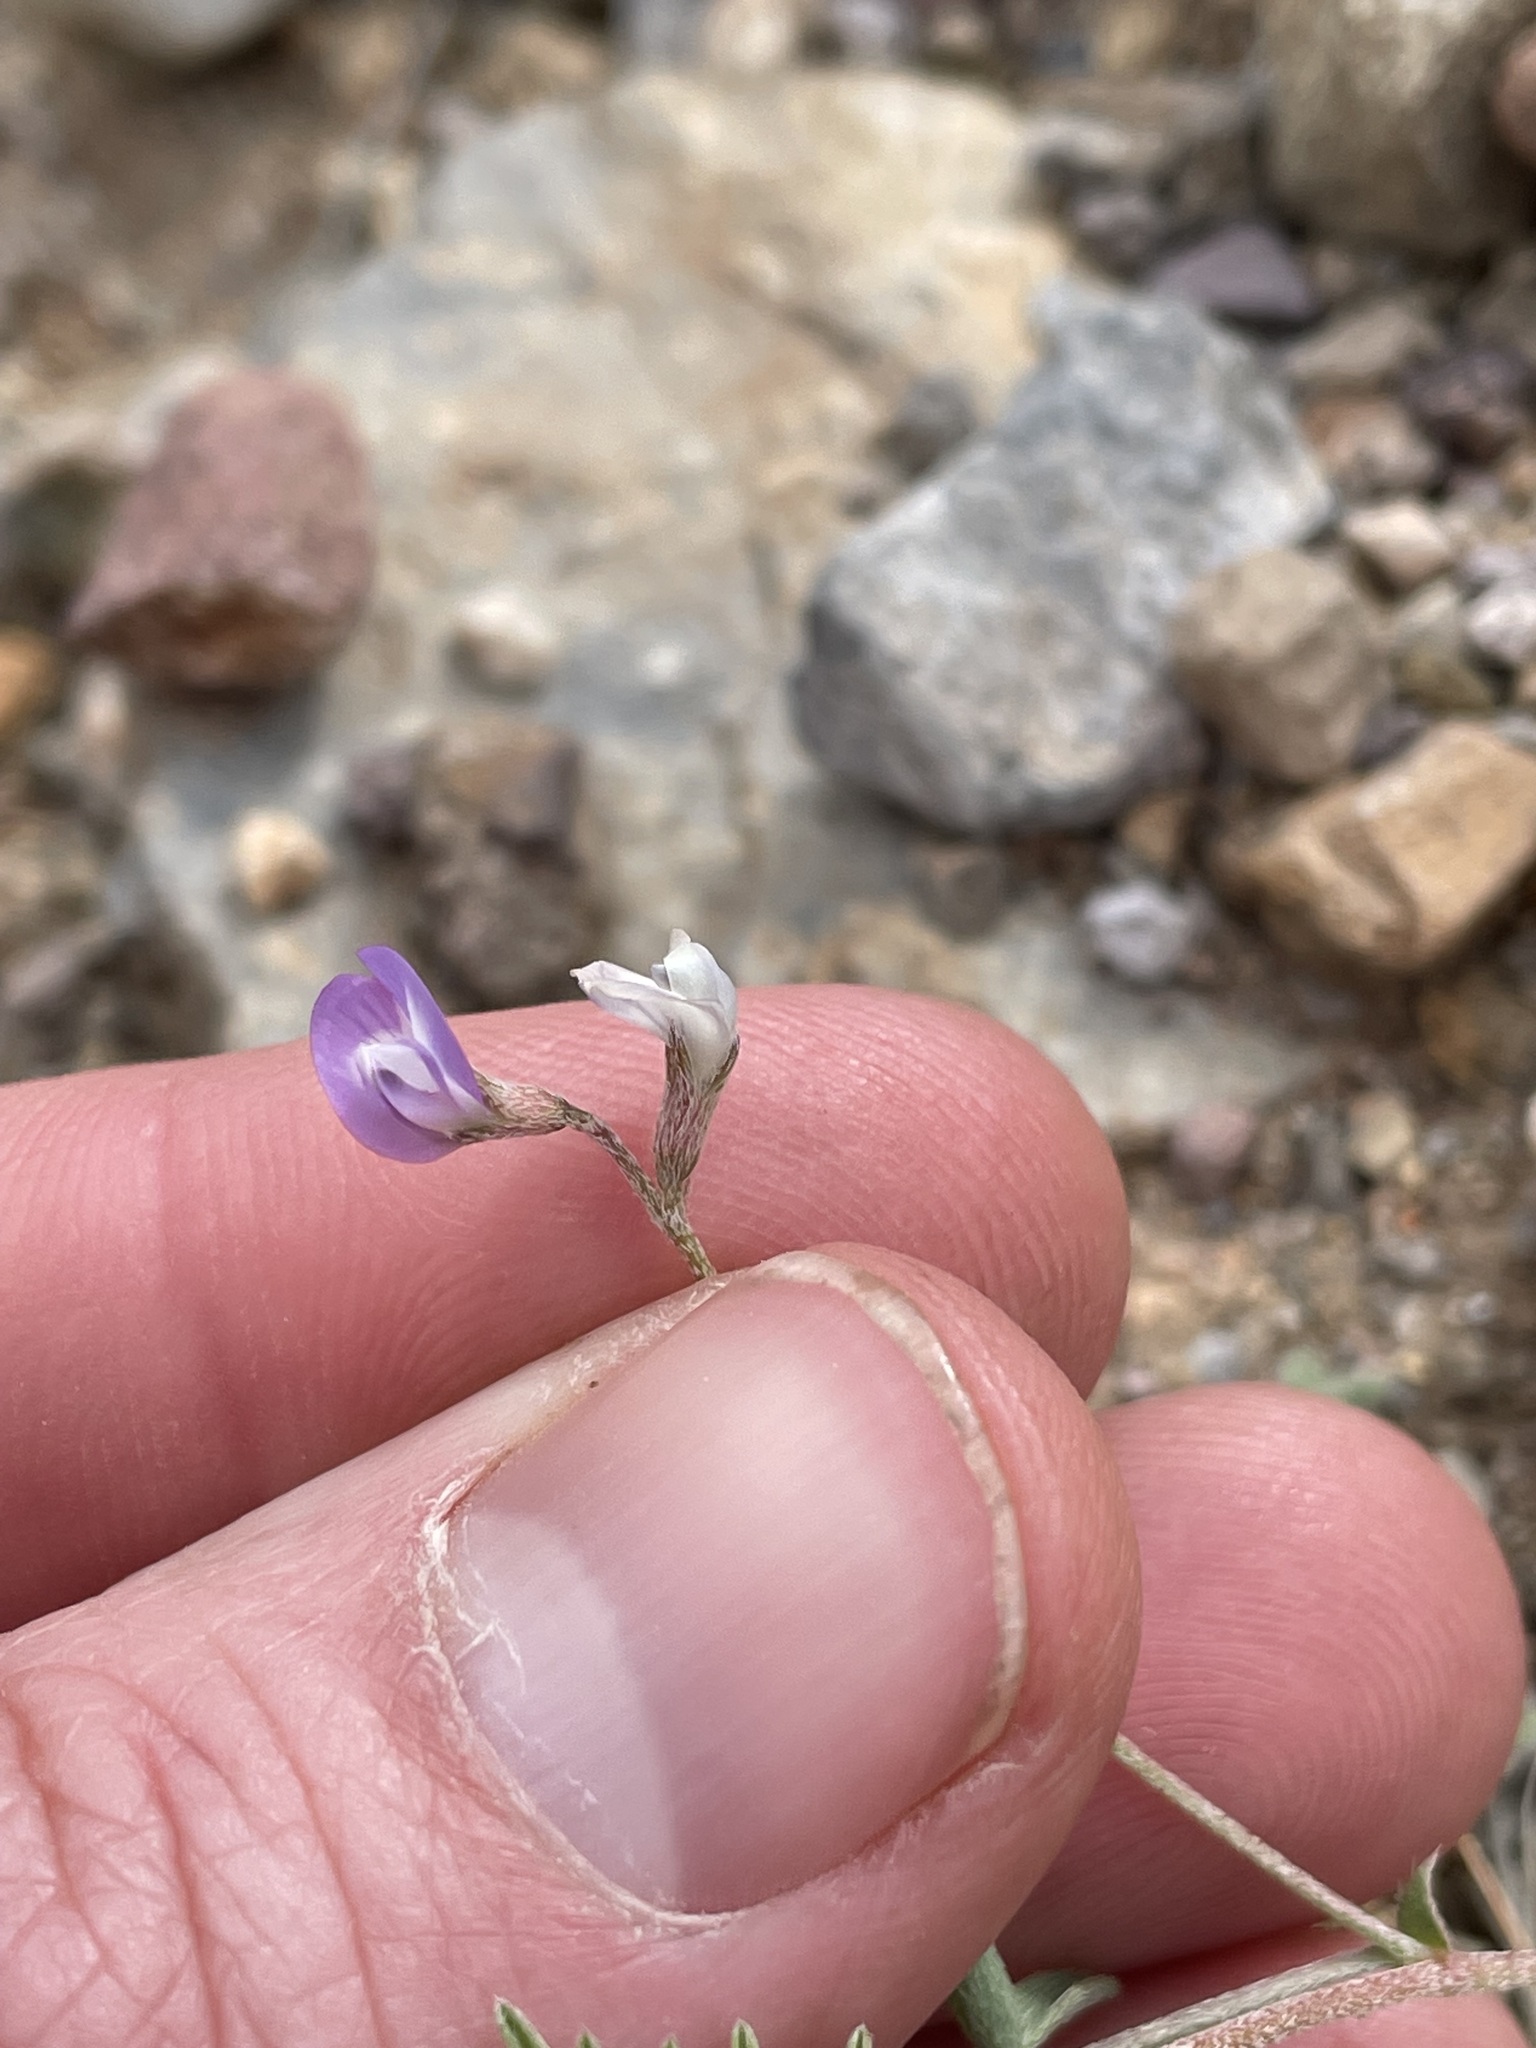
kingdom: Plantae
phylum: Tracheophyta
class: Magnoliopsida
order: Fabales
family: Fabaceae
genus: Astragalus
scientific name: Astragalus nuttallianus
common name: Smallflowered milkvetch
